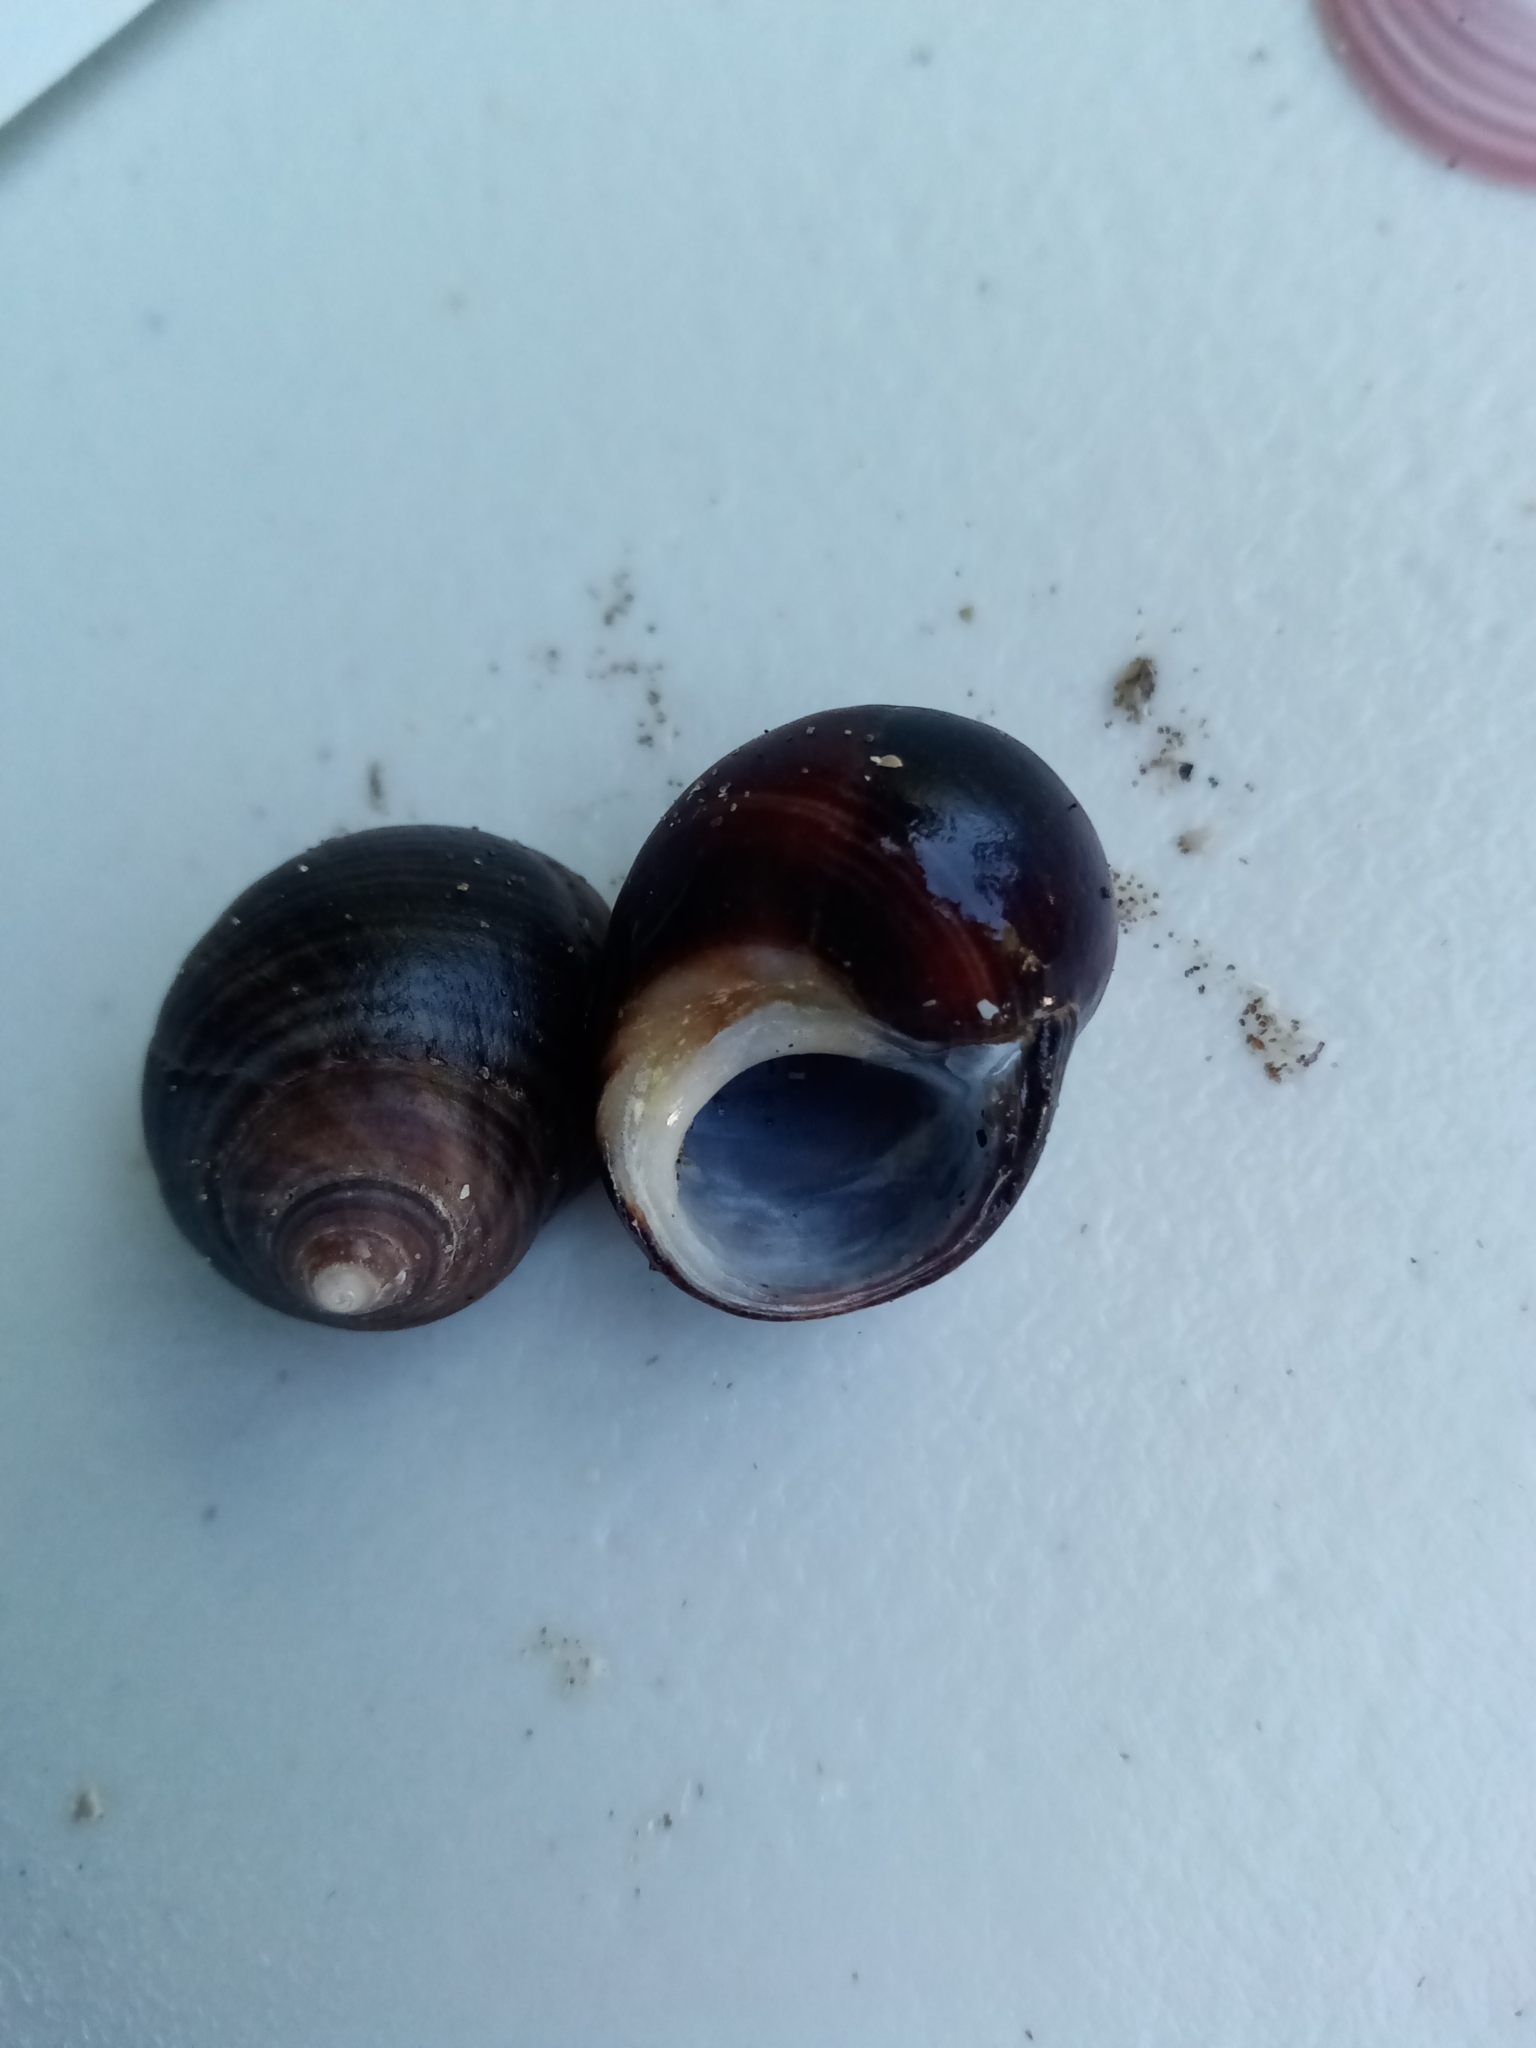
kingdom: Animalia
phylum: Mollusca
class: Gastropoda
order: Littorinimorpha
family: Littorinidae
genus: Littorina
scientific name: Littorina littorea
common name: Common periwinkle
